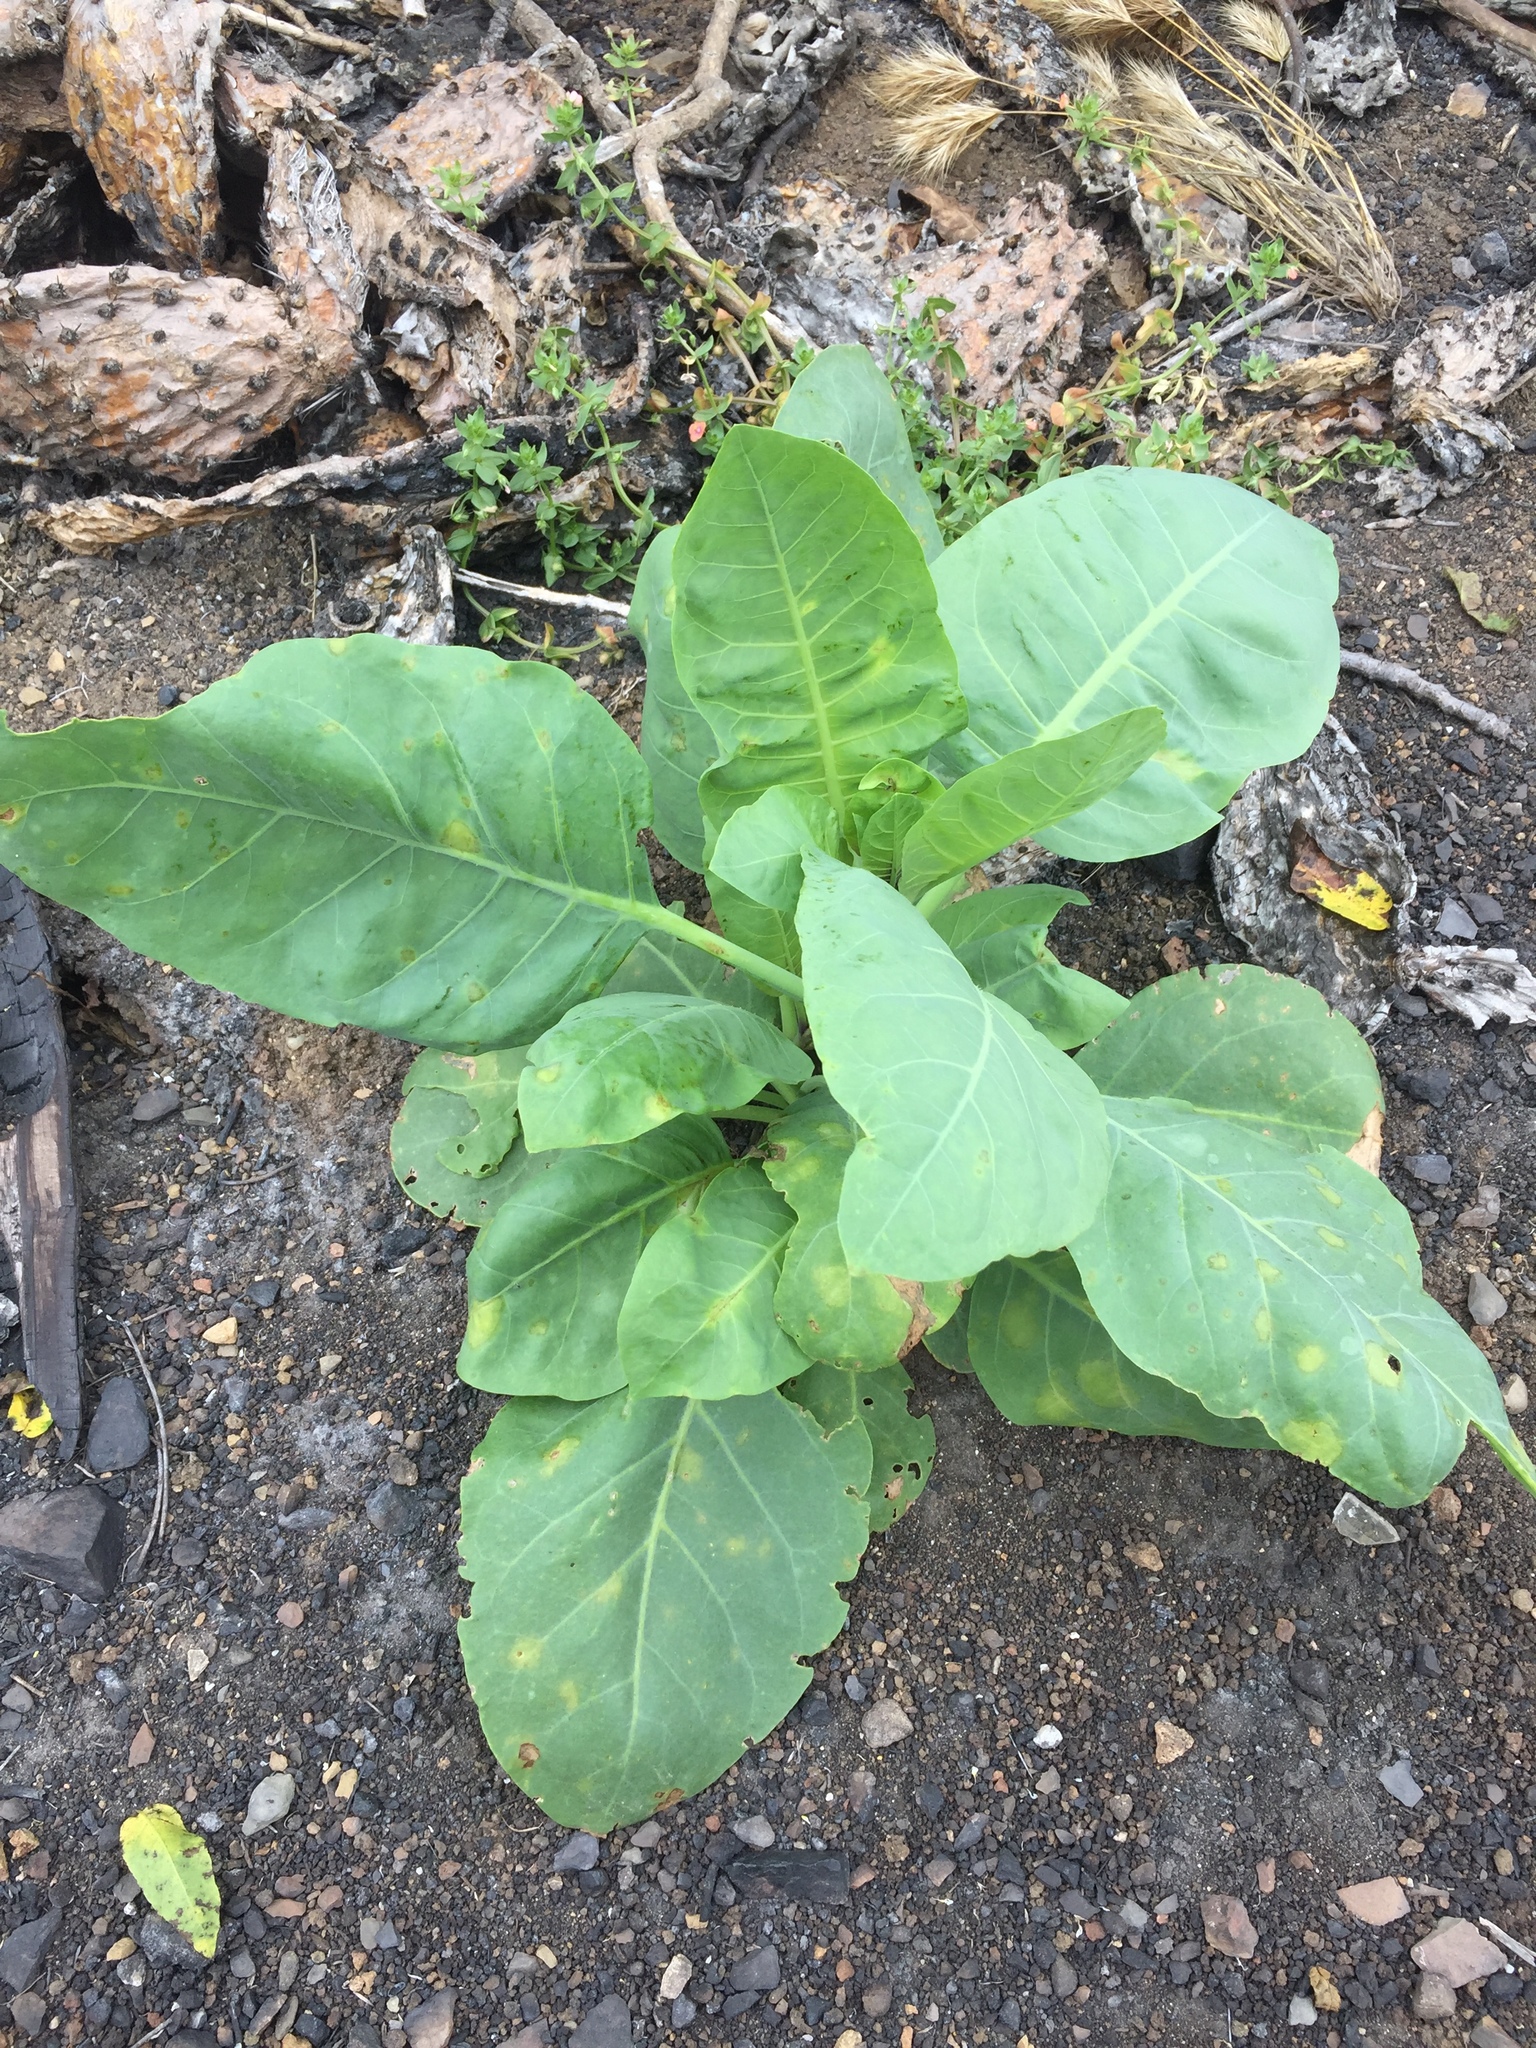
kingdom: Plantae
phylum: Tracheophyta
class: Magnoliopsida
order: Solanales
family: Solanaceae
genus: Nicotiana
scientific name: Nicotiana glauca
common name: Tree tobacco
